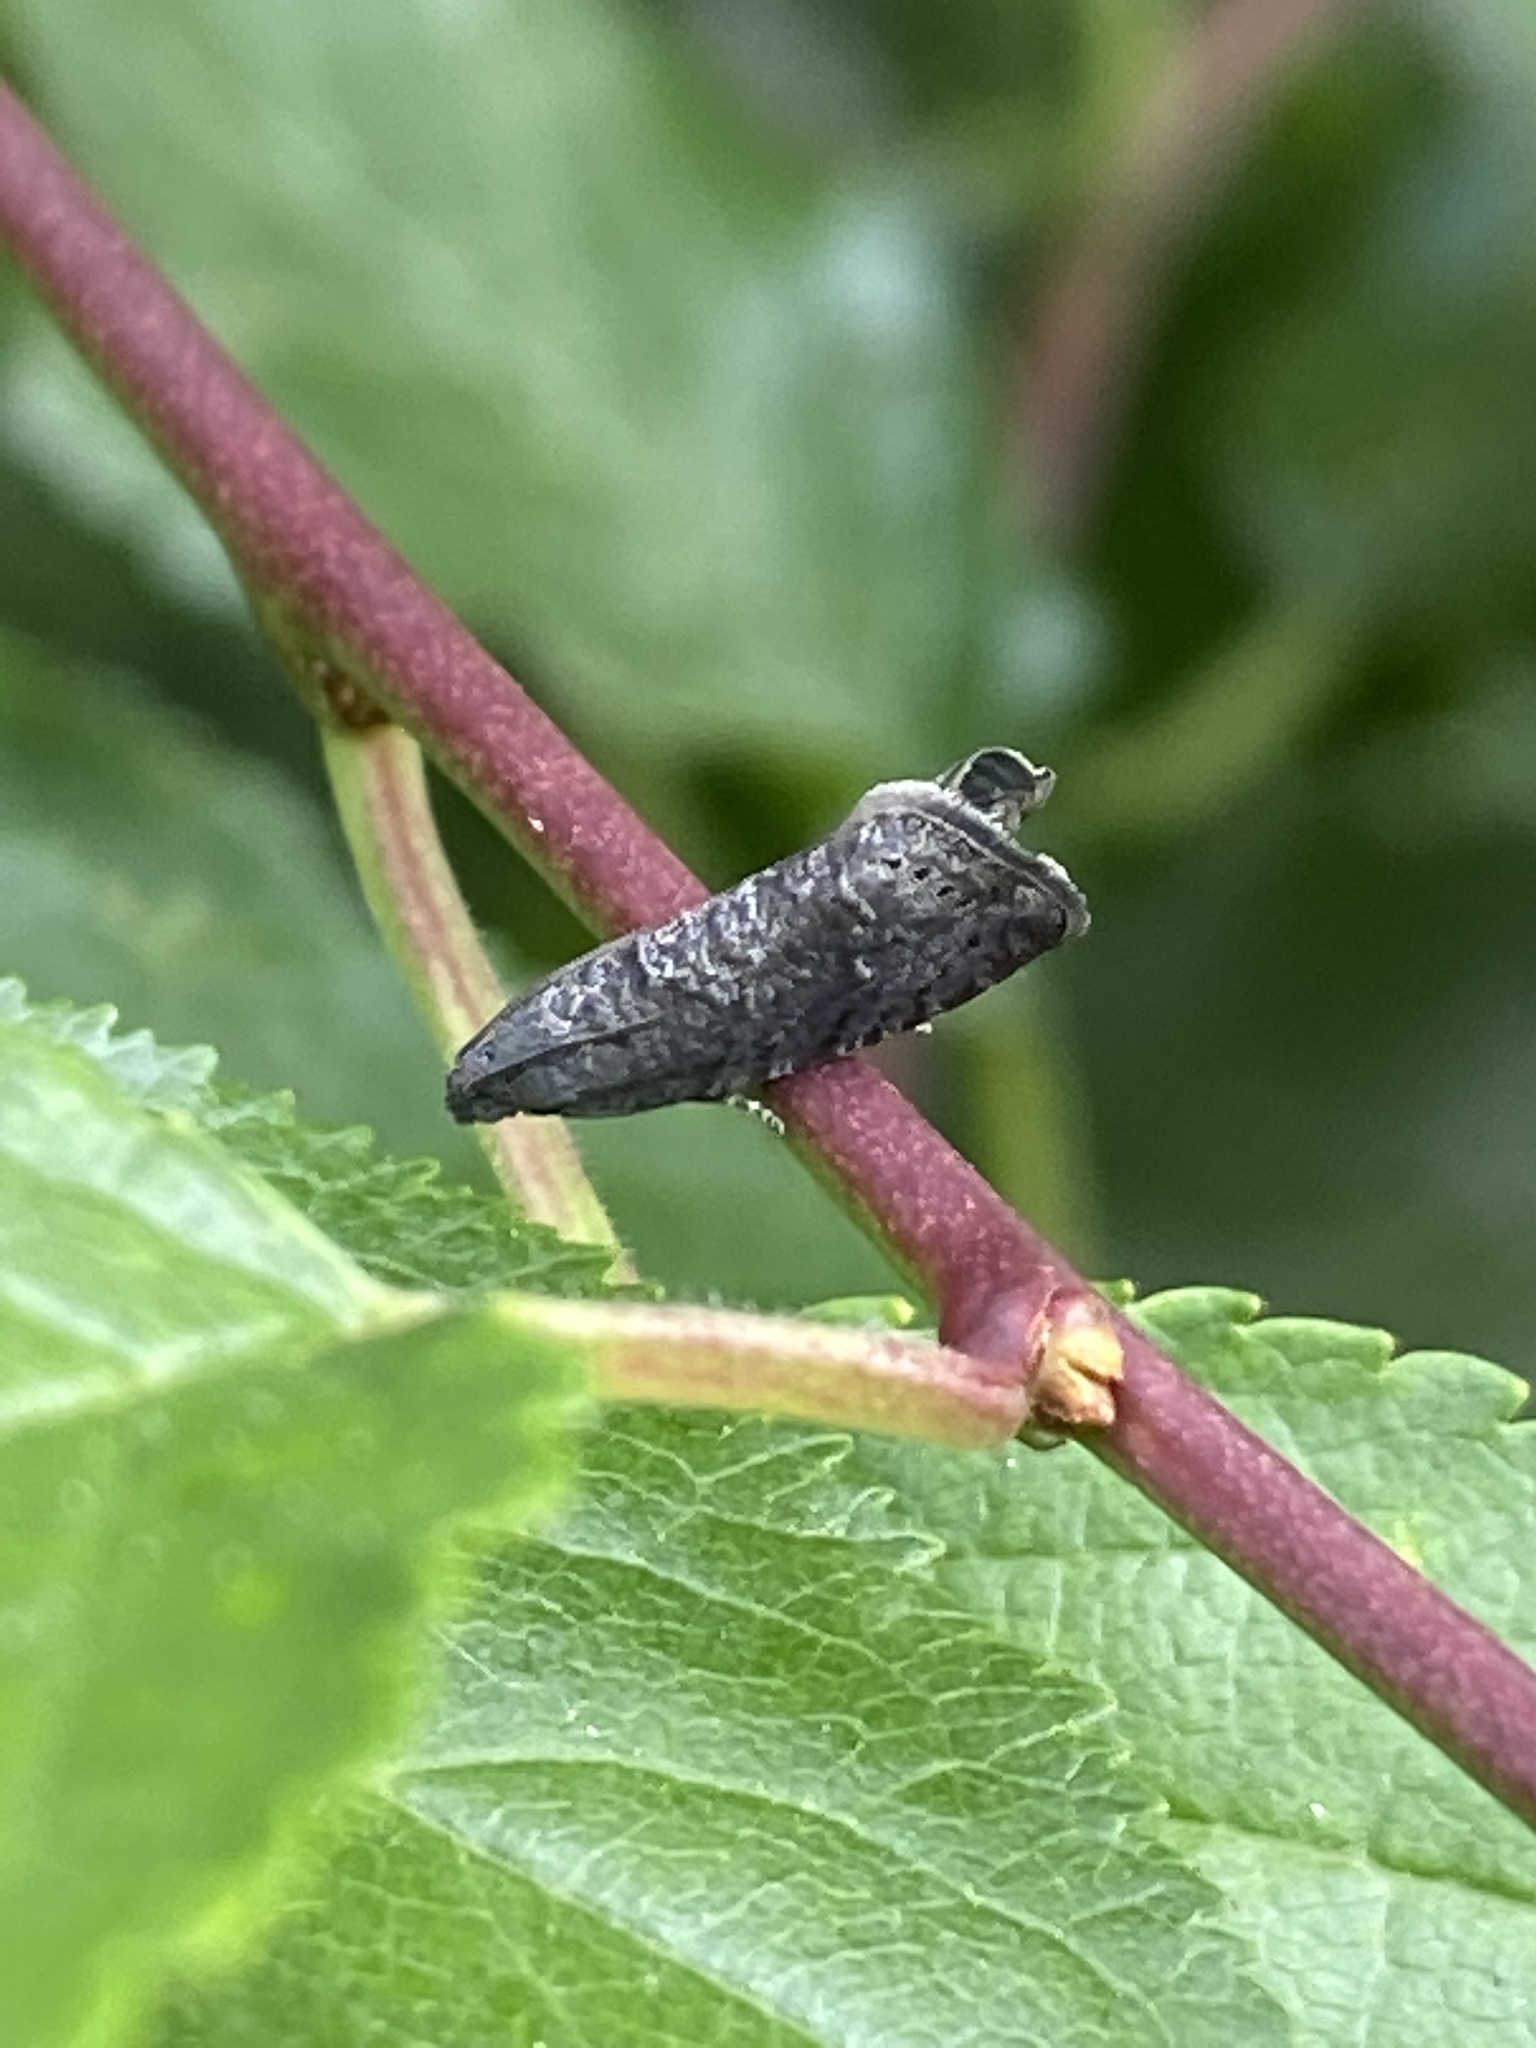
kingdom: Animalia
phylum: Arthropoda
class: Insecta
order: Lepidoptera
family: Noctuidae
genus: Aspila
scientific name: Aspila
